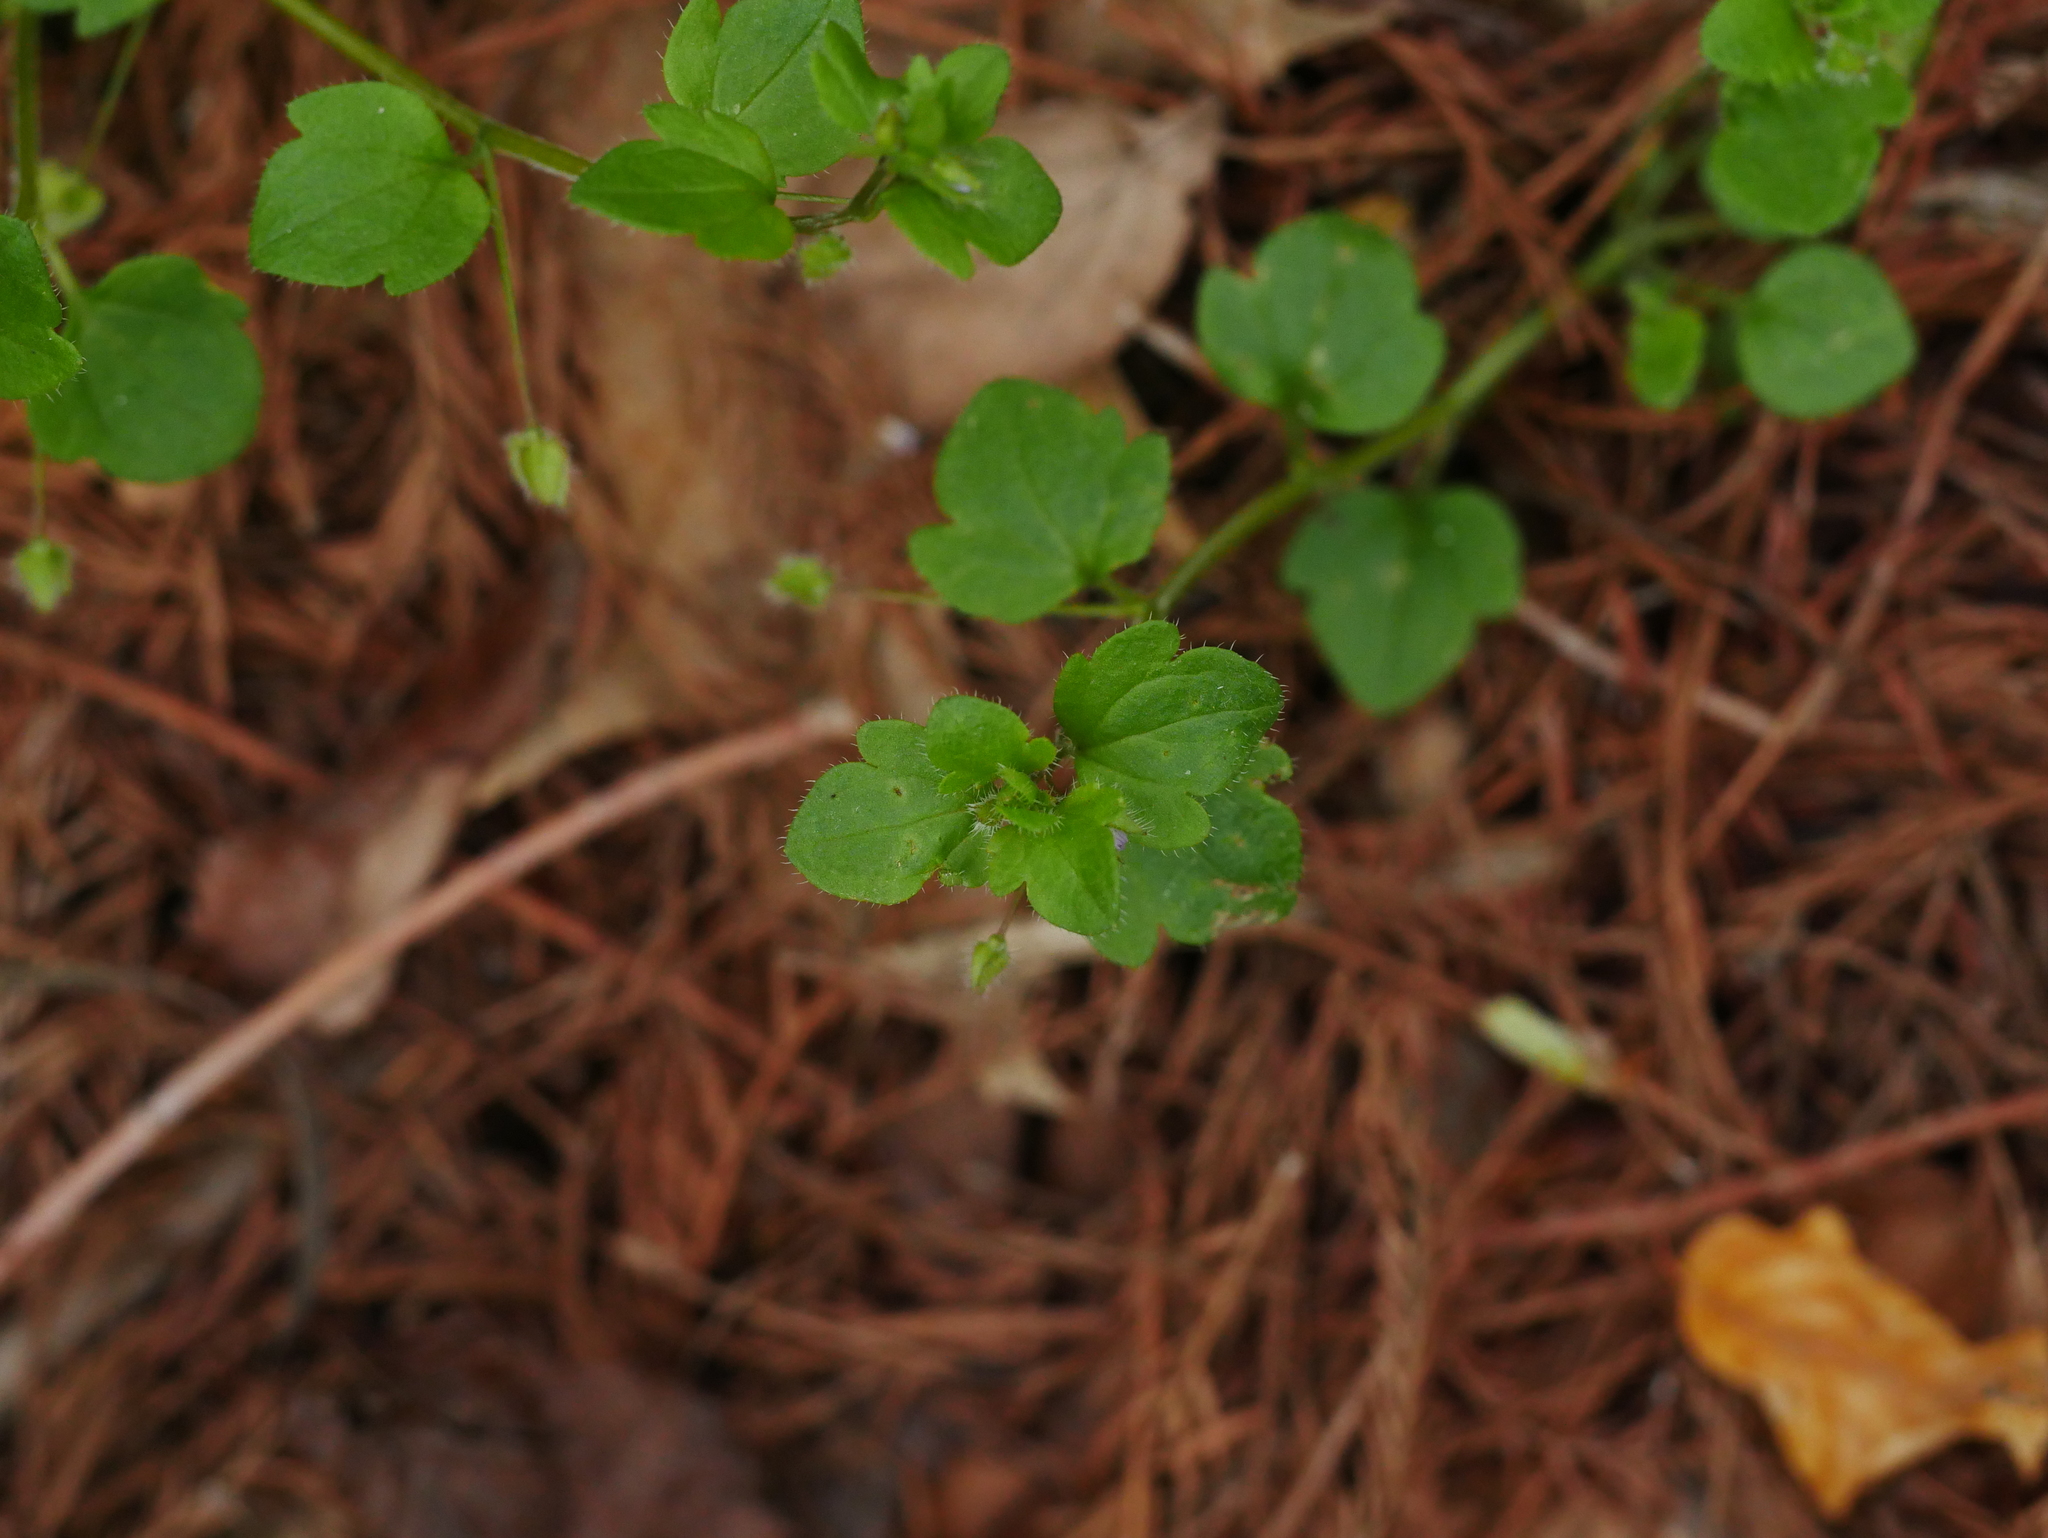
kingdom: Plantae
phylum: Tracheophyta
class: Magnoliopsida
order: Lamiales
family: Plantaginaceae
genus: Veronica
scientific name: Veronica sublobata
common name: False ivy-leaved speedwell
